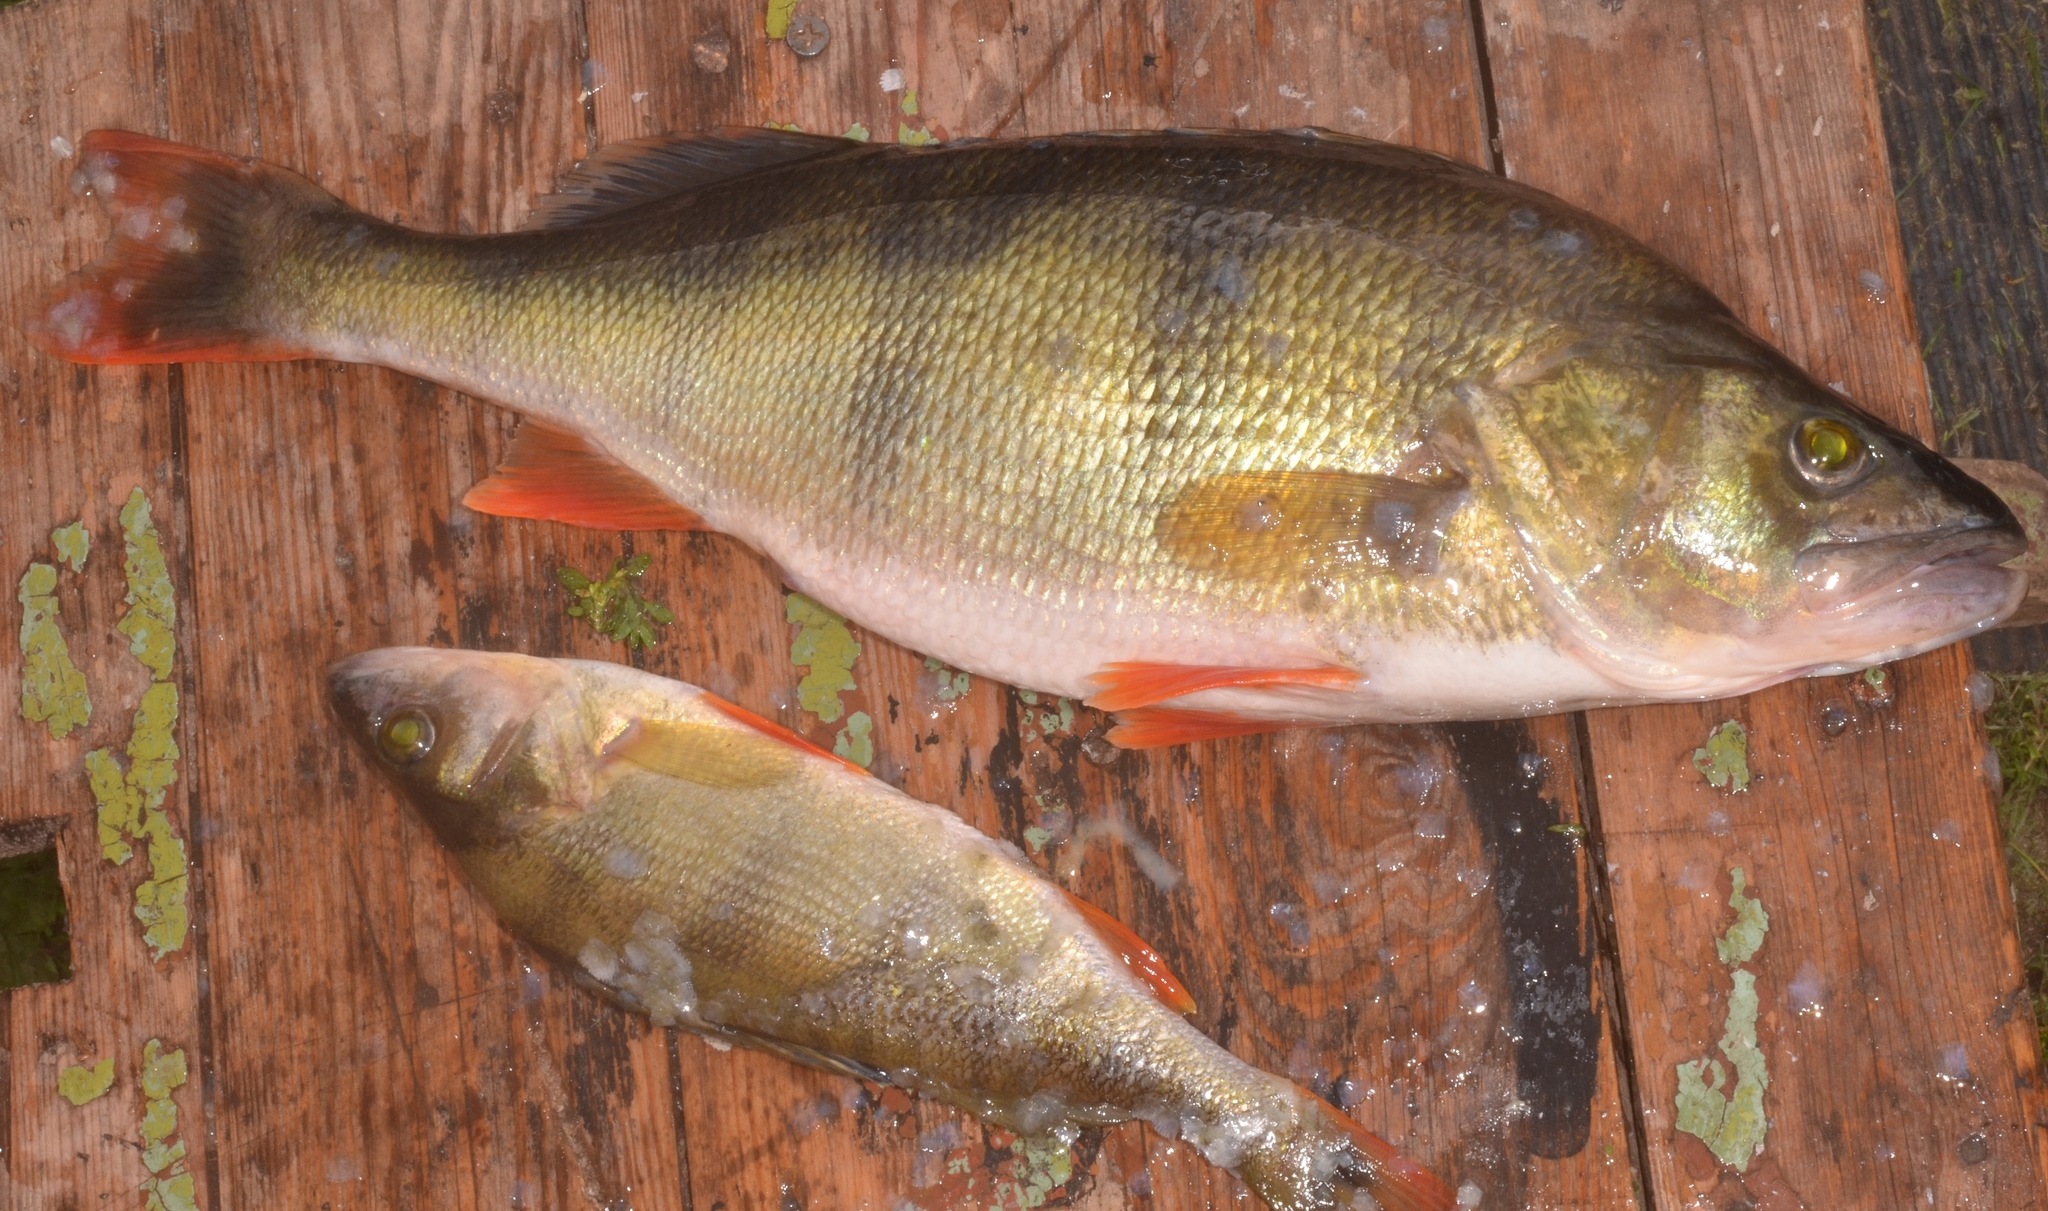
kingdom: Animalia
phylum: Chordata
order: Perciformes
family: Percidae
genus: Perca
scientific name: Perca fluviatilis
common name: Perch
